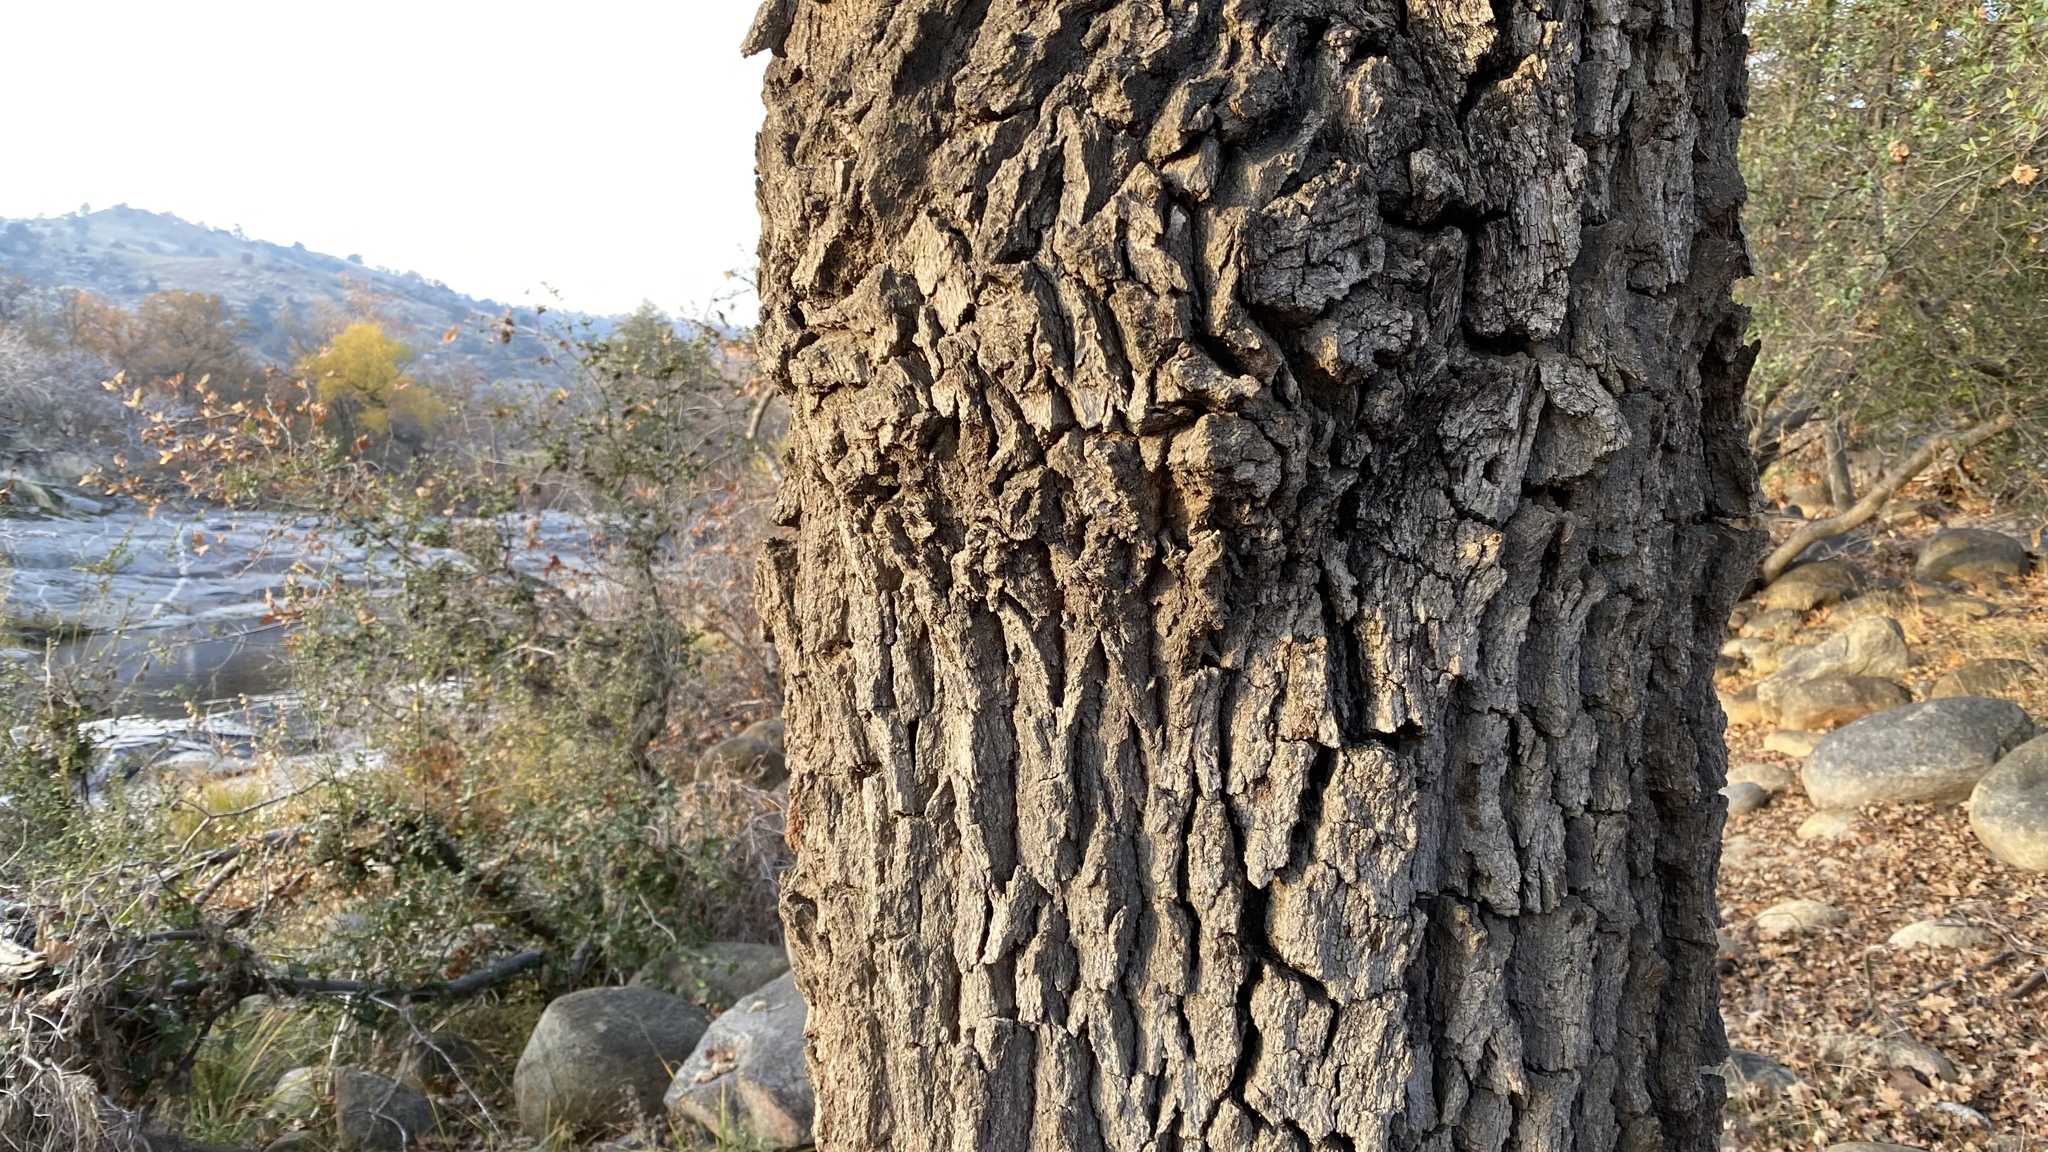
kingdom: Plantae
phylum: Tracheophyta
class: Magnoliopsida
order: Fagales
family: Fagaceae
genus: Quercus
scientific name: Quercus lobata
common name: Valley oak
